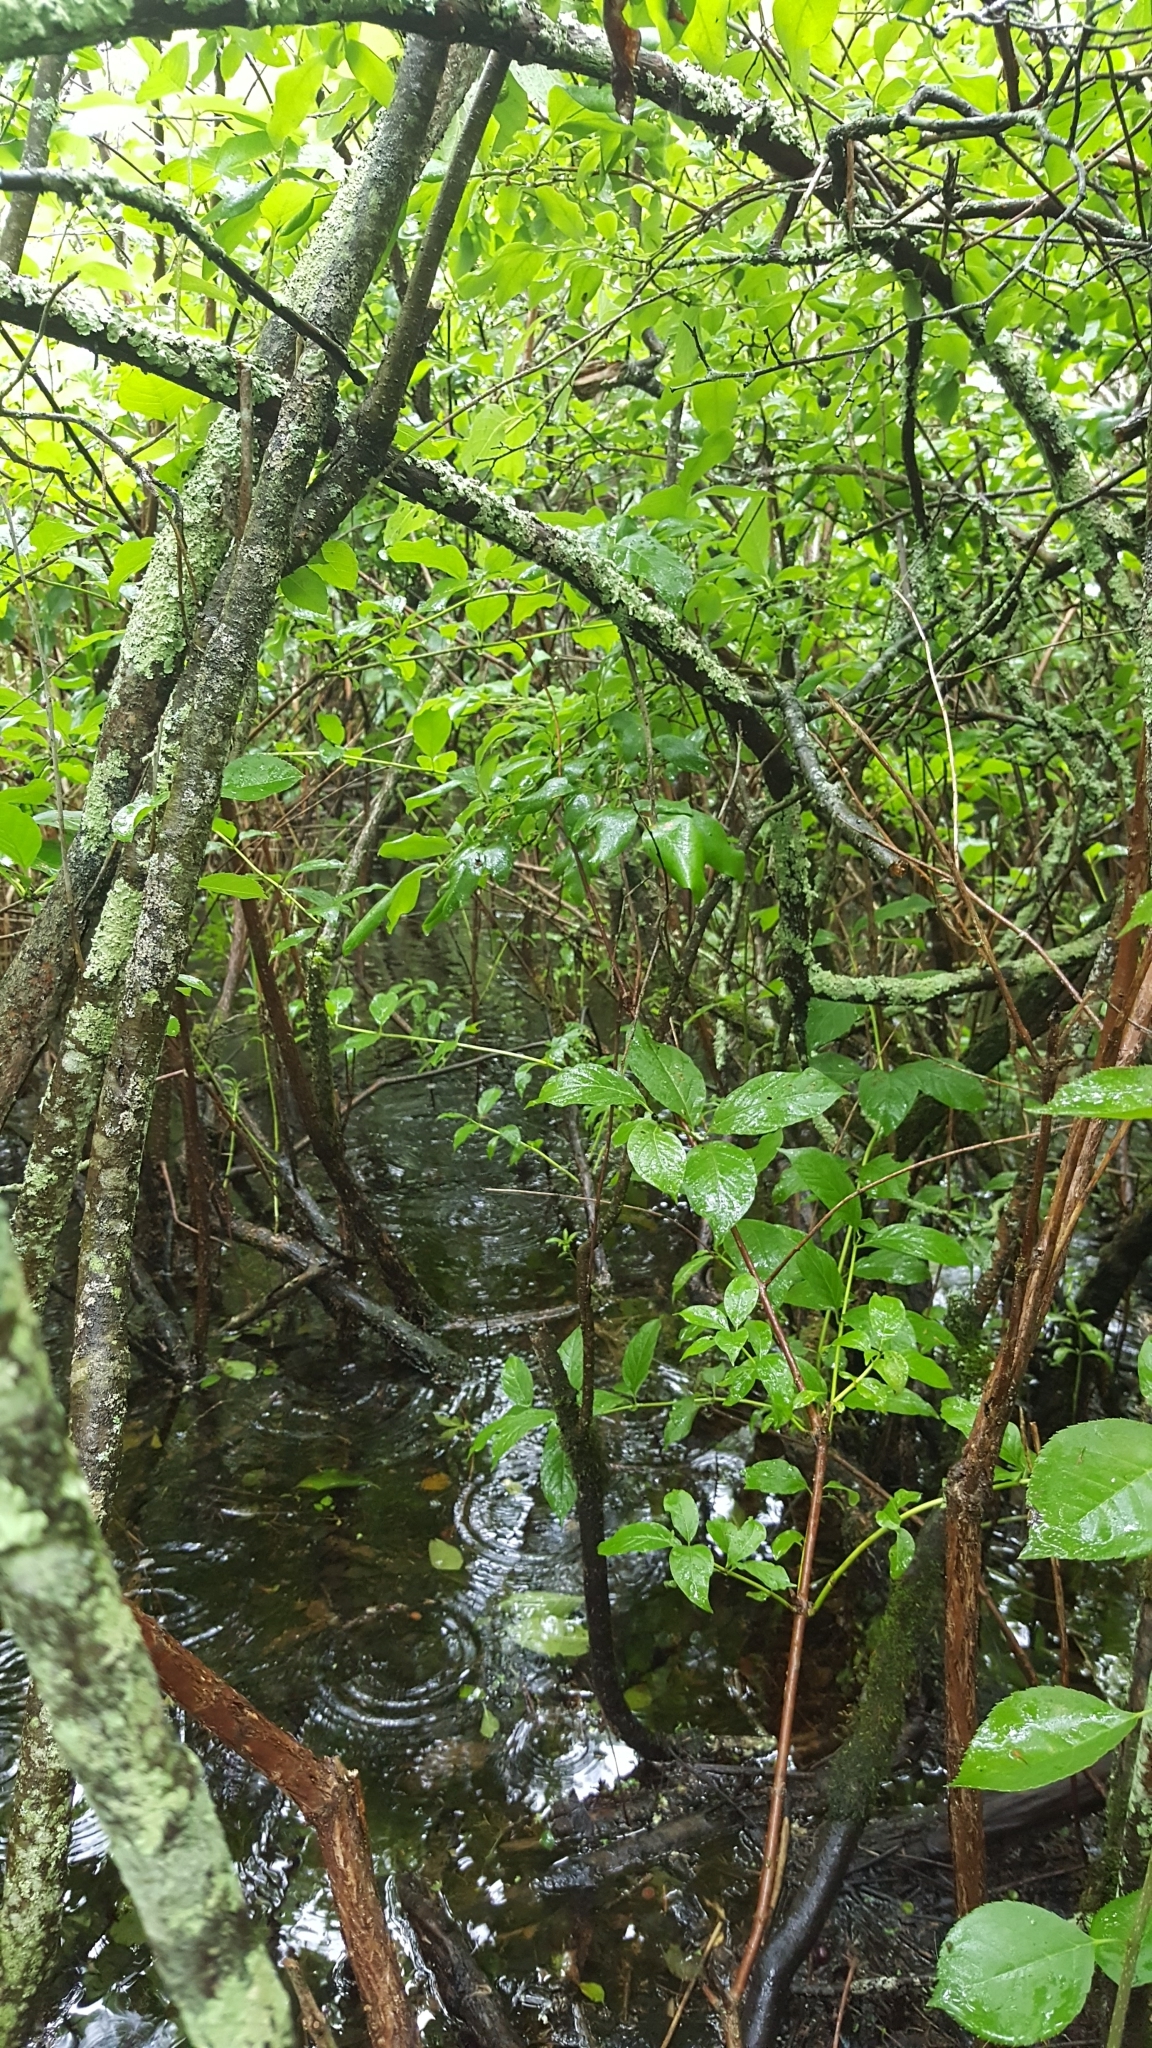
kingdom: Plantae
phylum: Tracheophyta
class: Magnoliopsida
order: Gentianales
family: Rubiaceae
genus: Cephalanthus
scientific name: Cephalanthus occidentalis
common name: Button-willow
